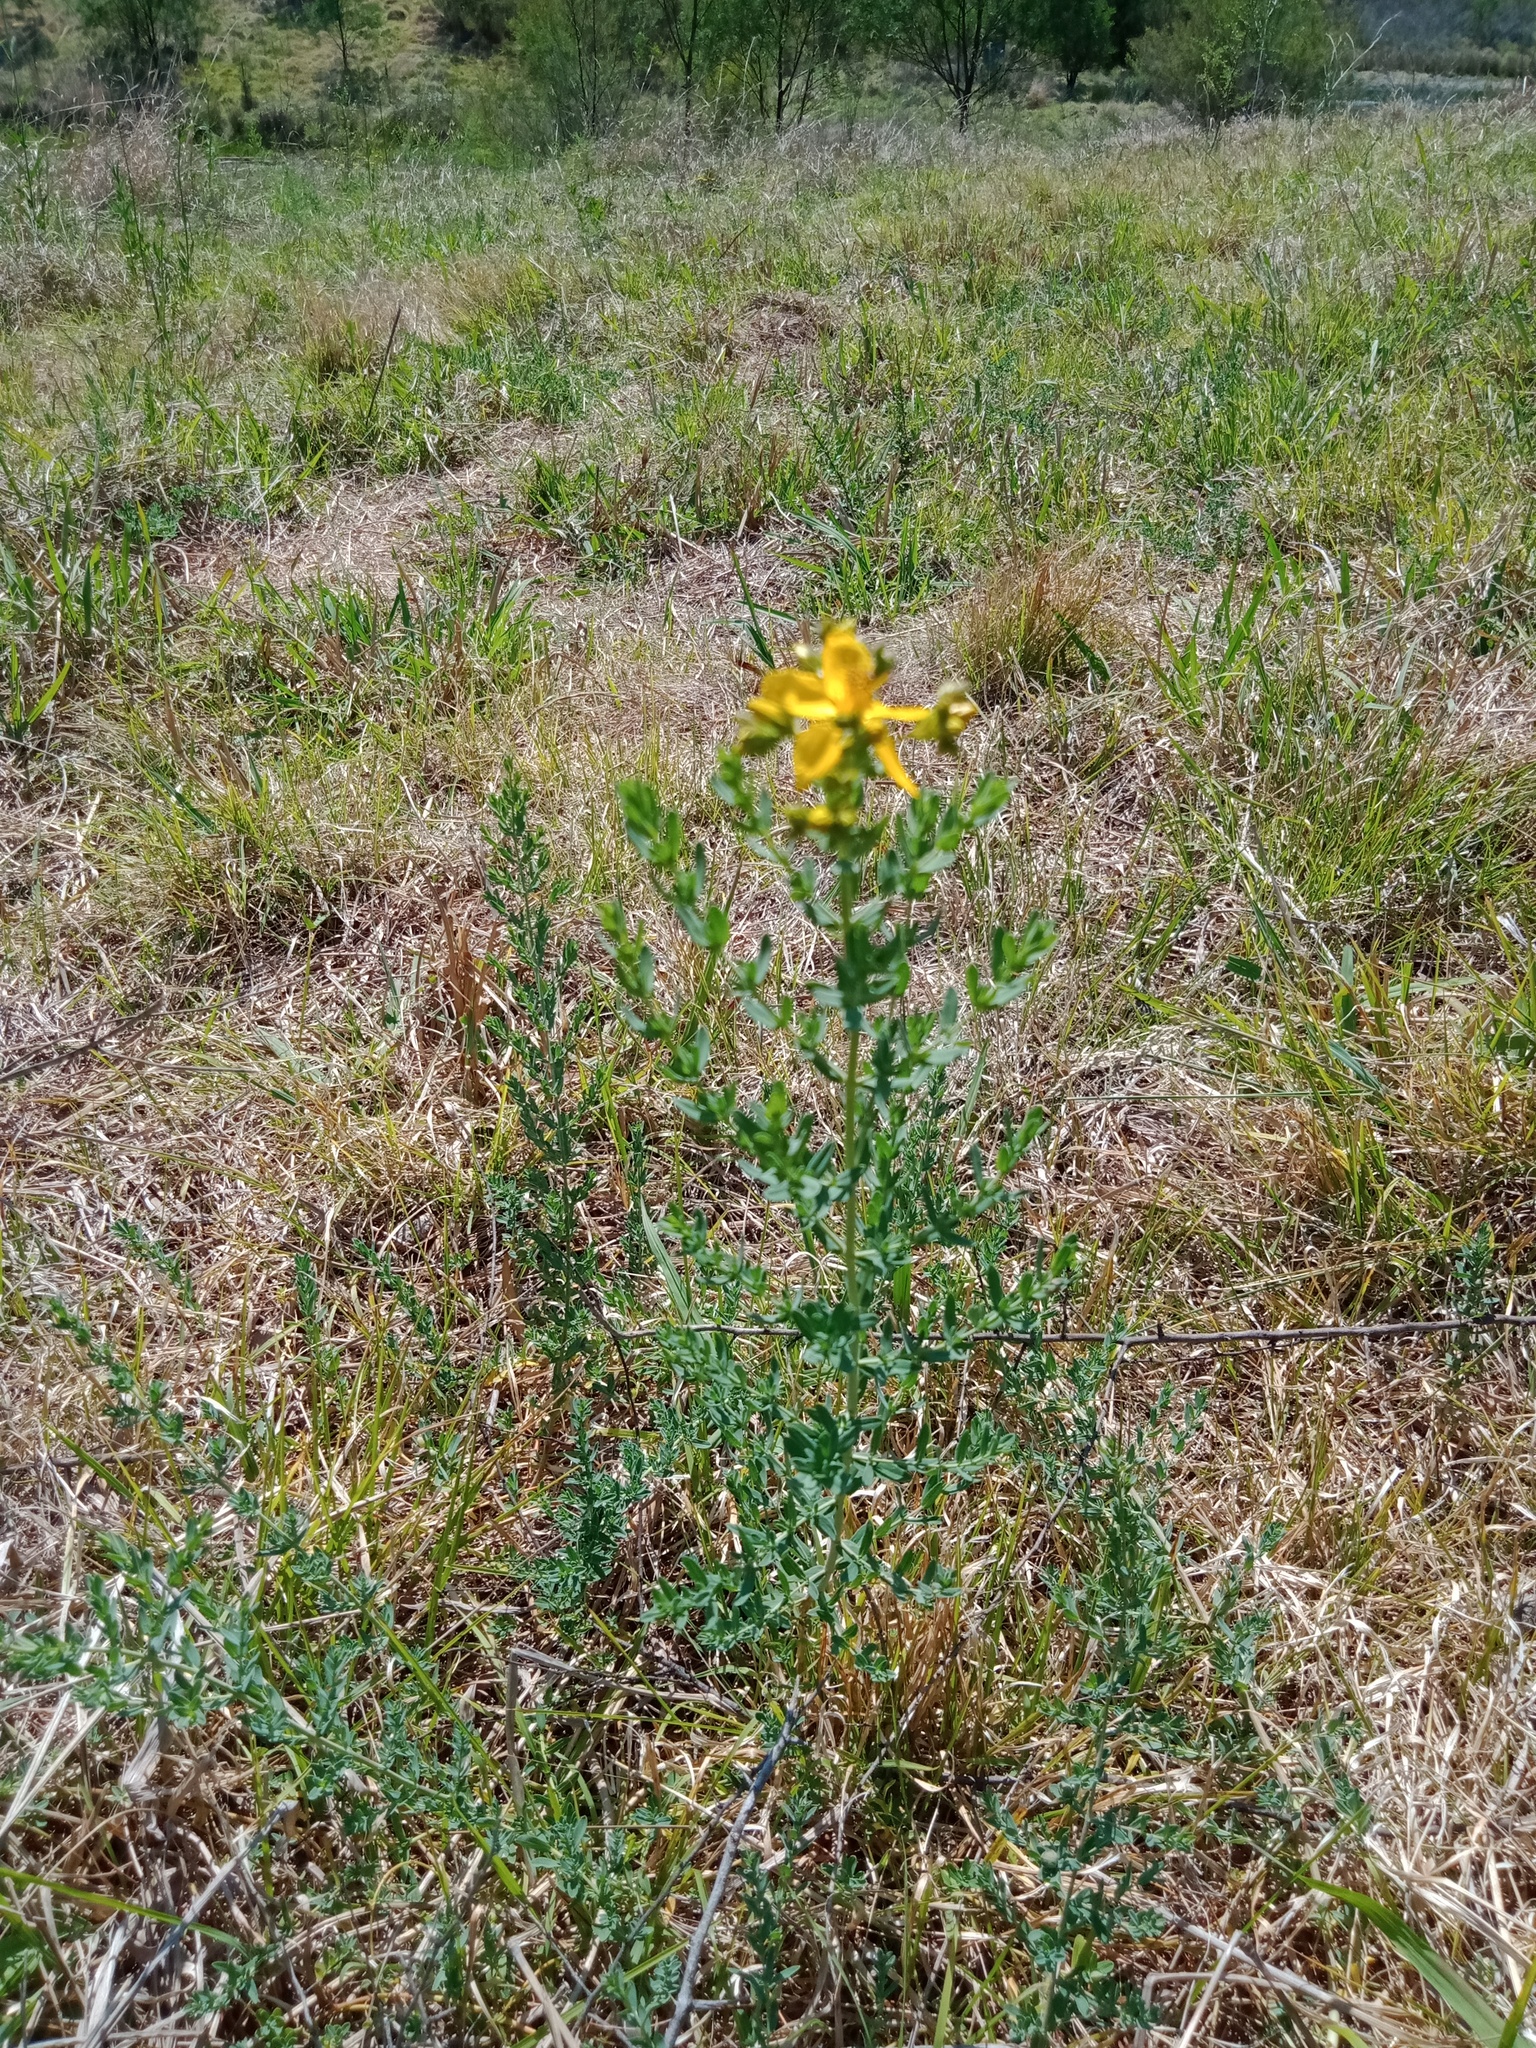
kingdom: Plantae
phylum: Tracheophyta
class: Magnoliopsida
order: Malpighiales
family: Hypericaceae
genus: Hypericum
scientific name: Hypericum perforatum
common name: Common st. johnswort
